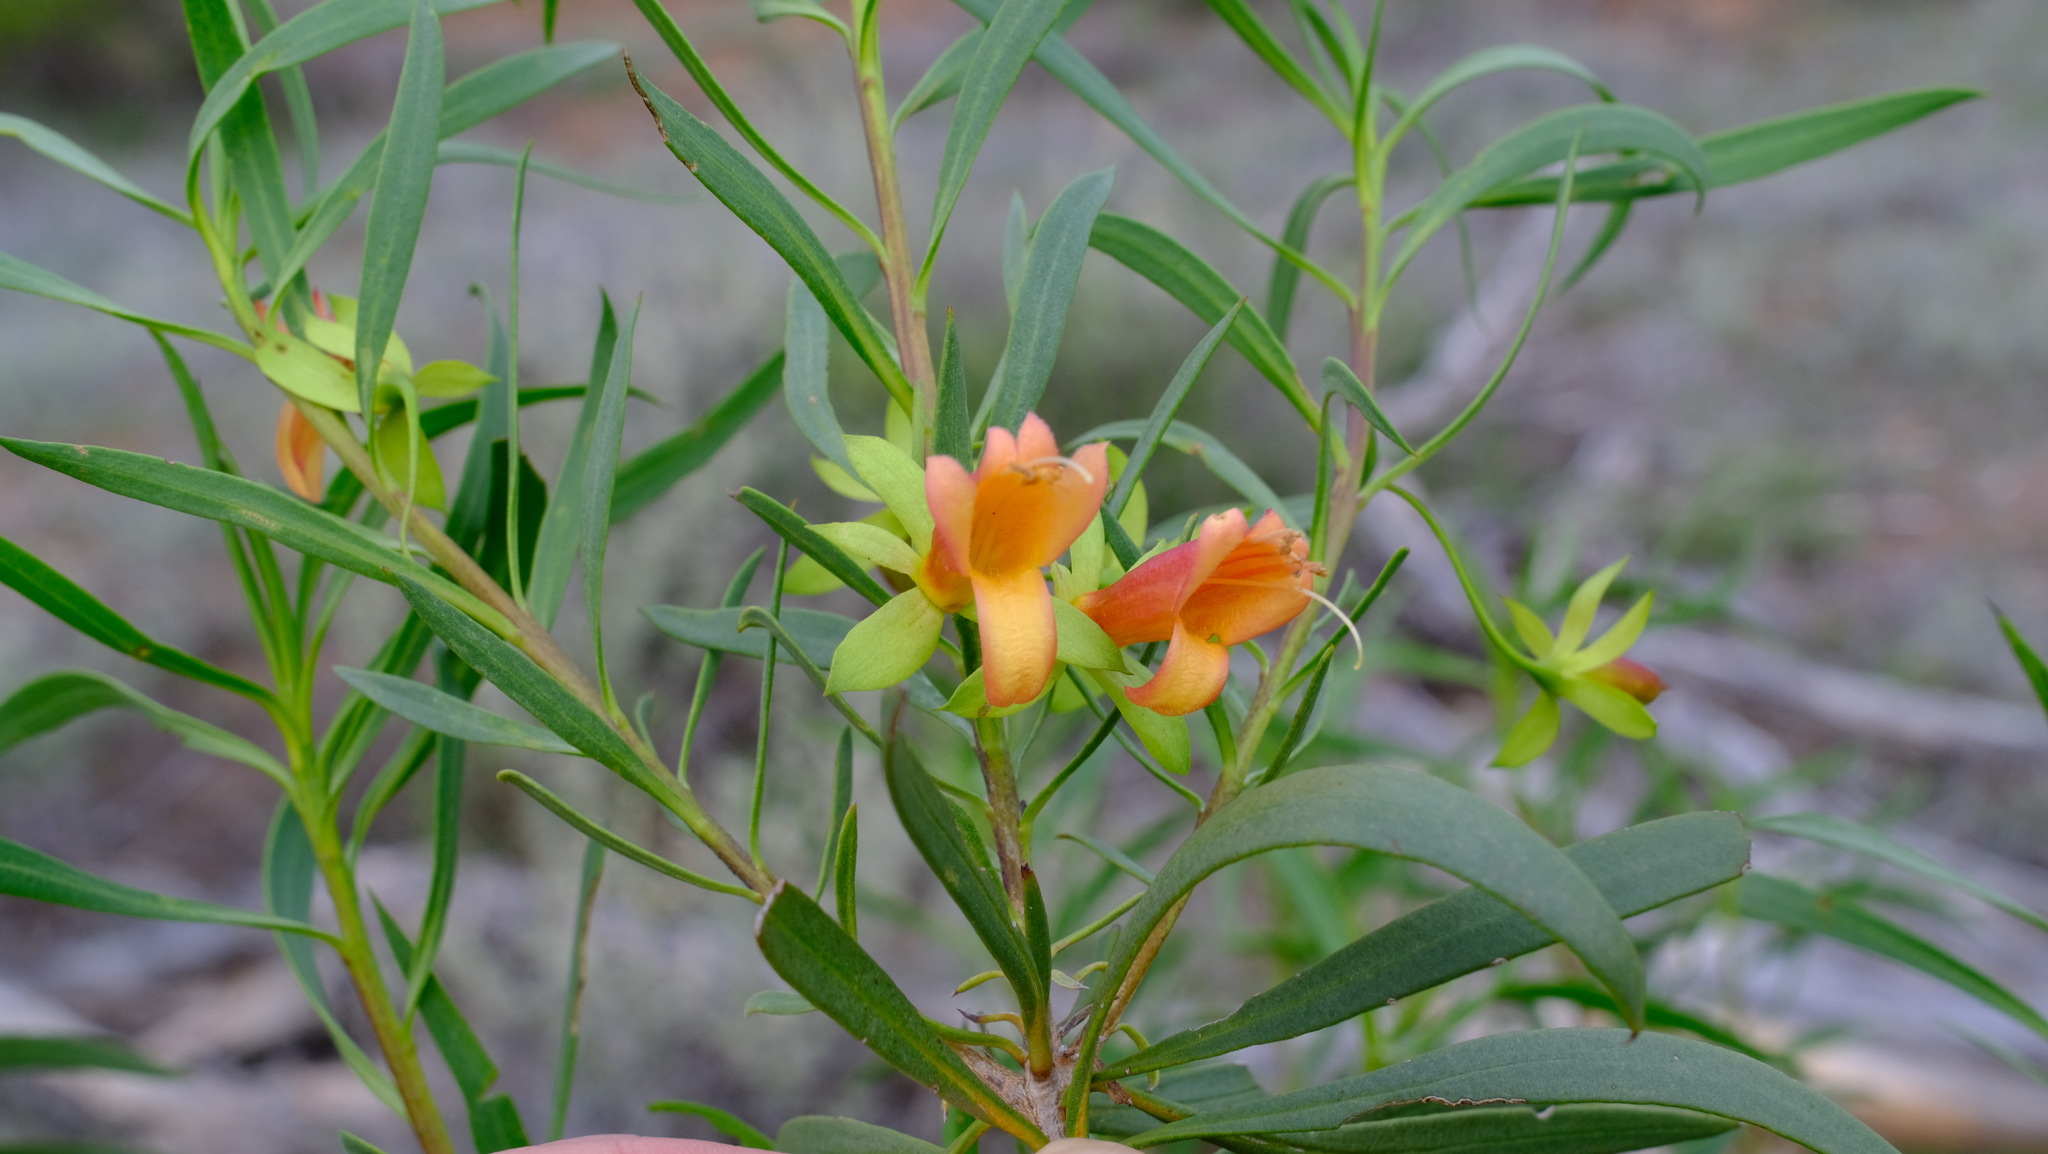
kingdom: Plantae
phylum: Tracheophyta
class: Magnoliopsida
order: Lamiales
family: Scrophulariaceae
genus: Eremophila
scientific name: Eremophila oldfieldii
